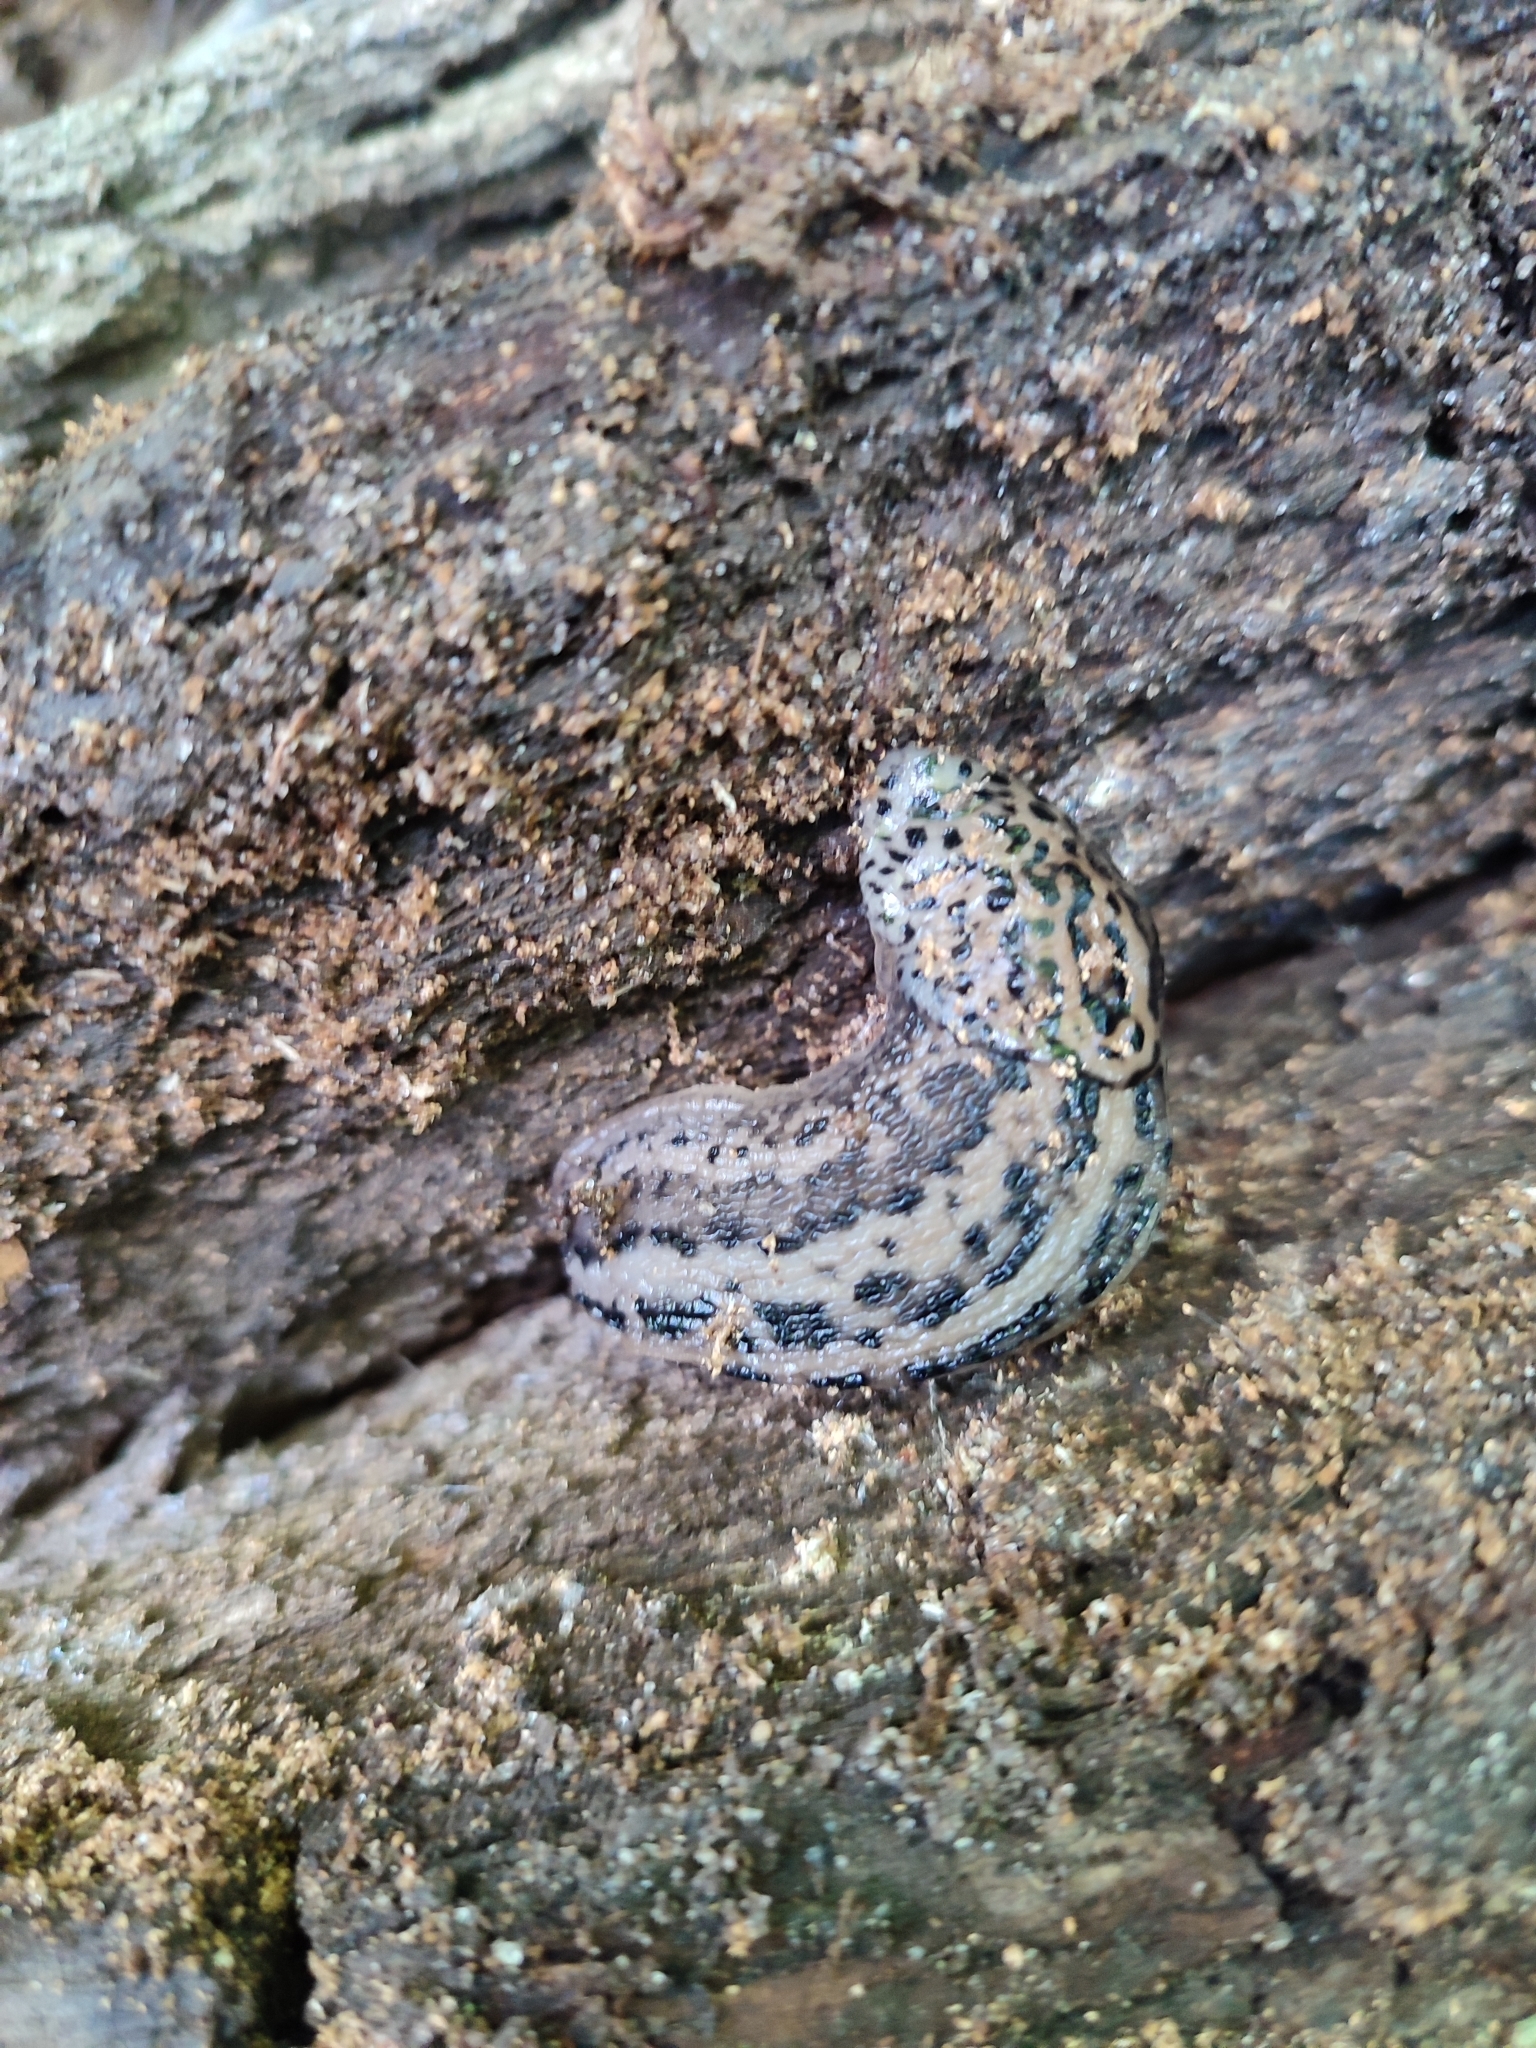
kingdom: Animalia
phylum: Mollusca
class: Gastropoda
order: Stylommatophora
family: Limacidae
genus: Limax
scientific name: Limax maximus
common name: Great grey slug
